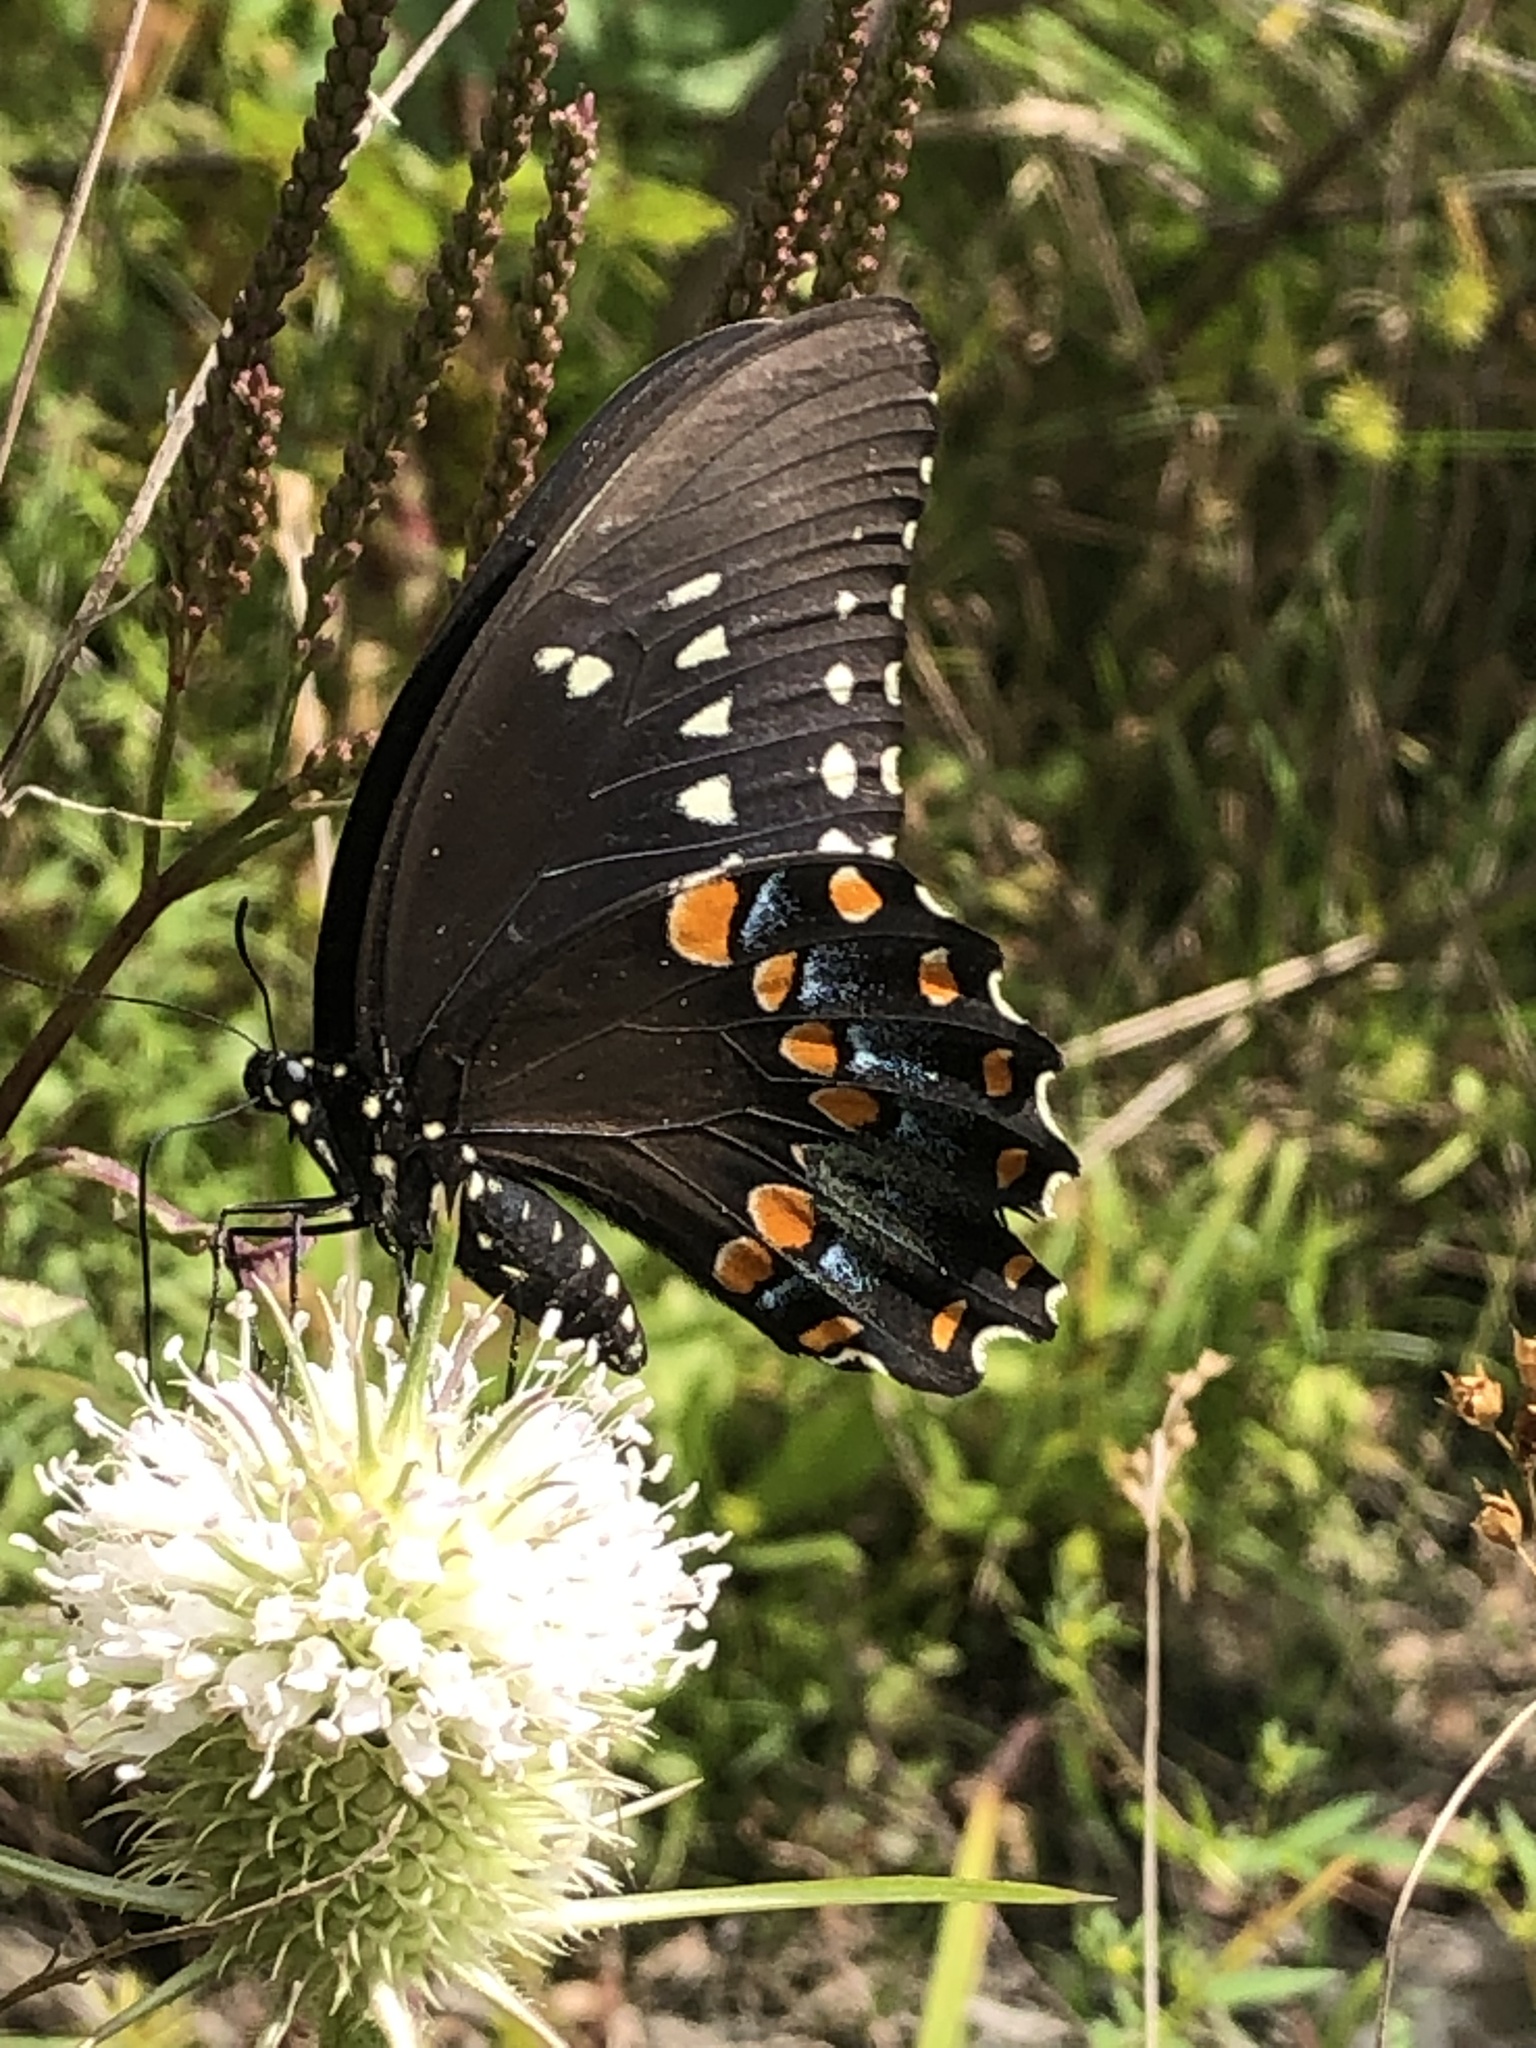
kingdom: Animalia
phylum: Arthropoda
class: Insecta
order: Lepidoptera
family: Papilionidae
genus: Papilio
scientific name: Papilio troilus
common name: Spicebush swallowtail
